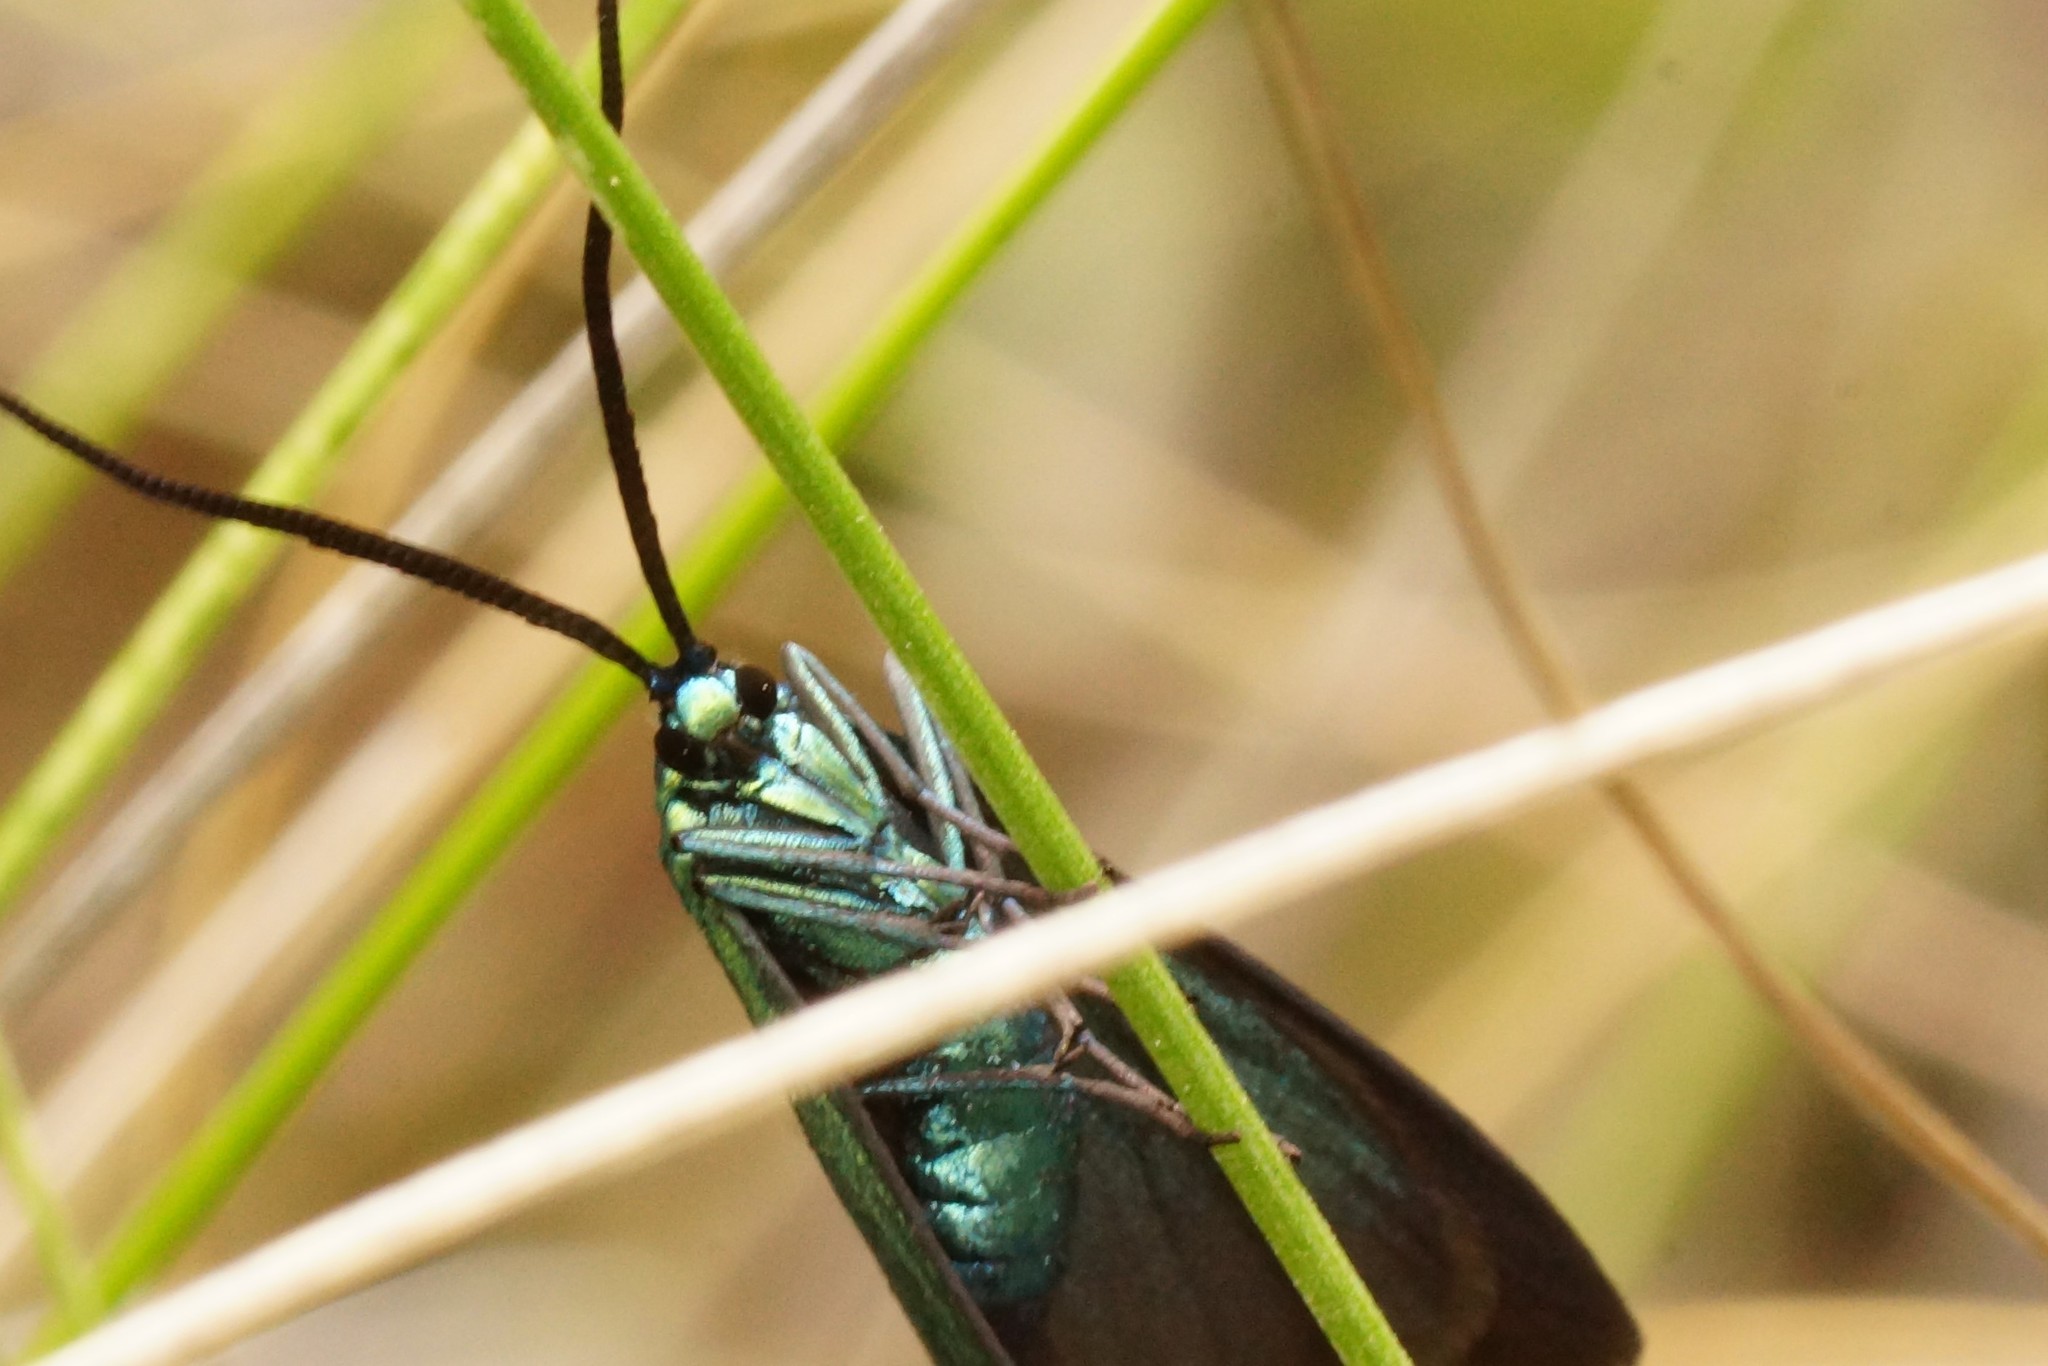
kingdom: Animalia
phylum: Arthropoda
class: Insecta
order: Lepidoptera
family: Zygaenidae
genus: Pollanisus
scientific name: Pollanisus
